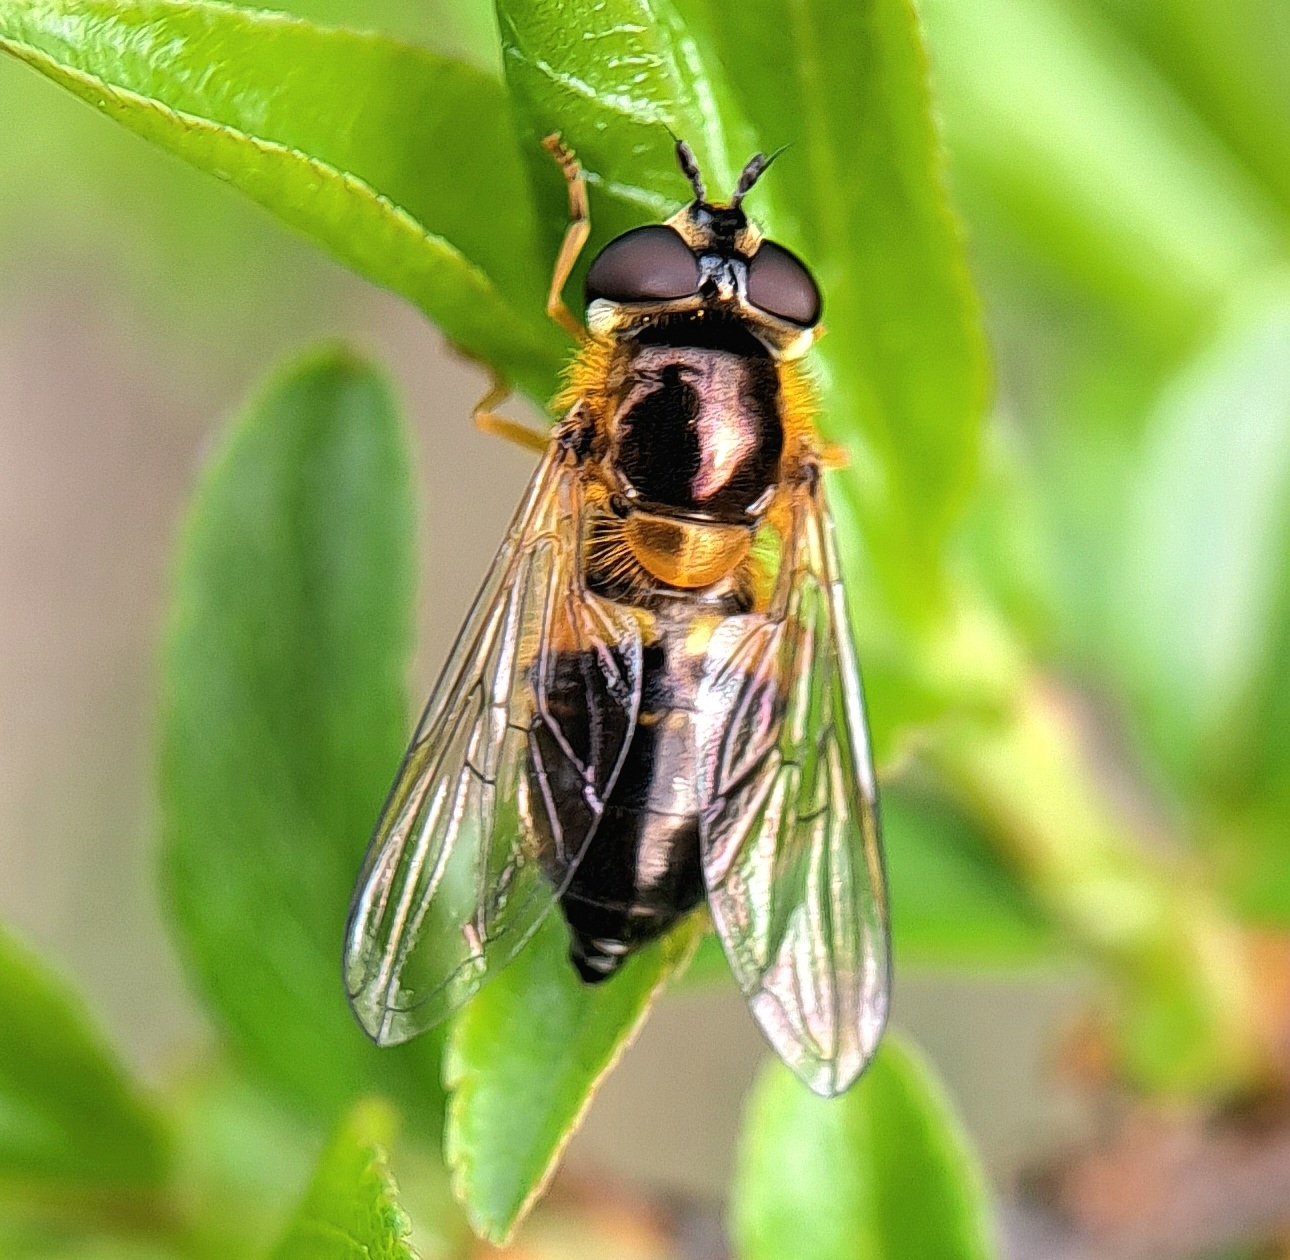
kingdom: Animalia
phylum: Arthropoda
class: Insecta
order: Diptera
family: Syrphidae
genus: Epistrophe
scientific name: Epistrophe eligans
